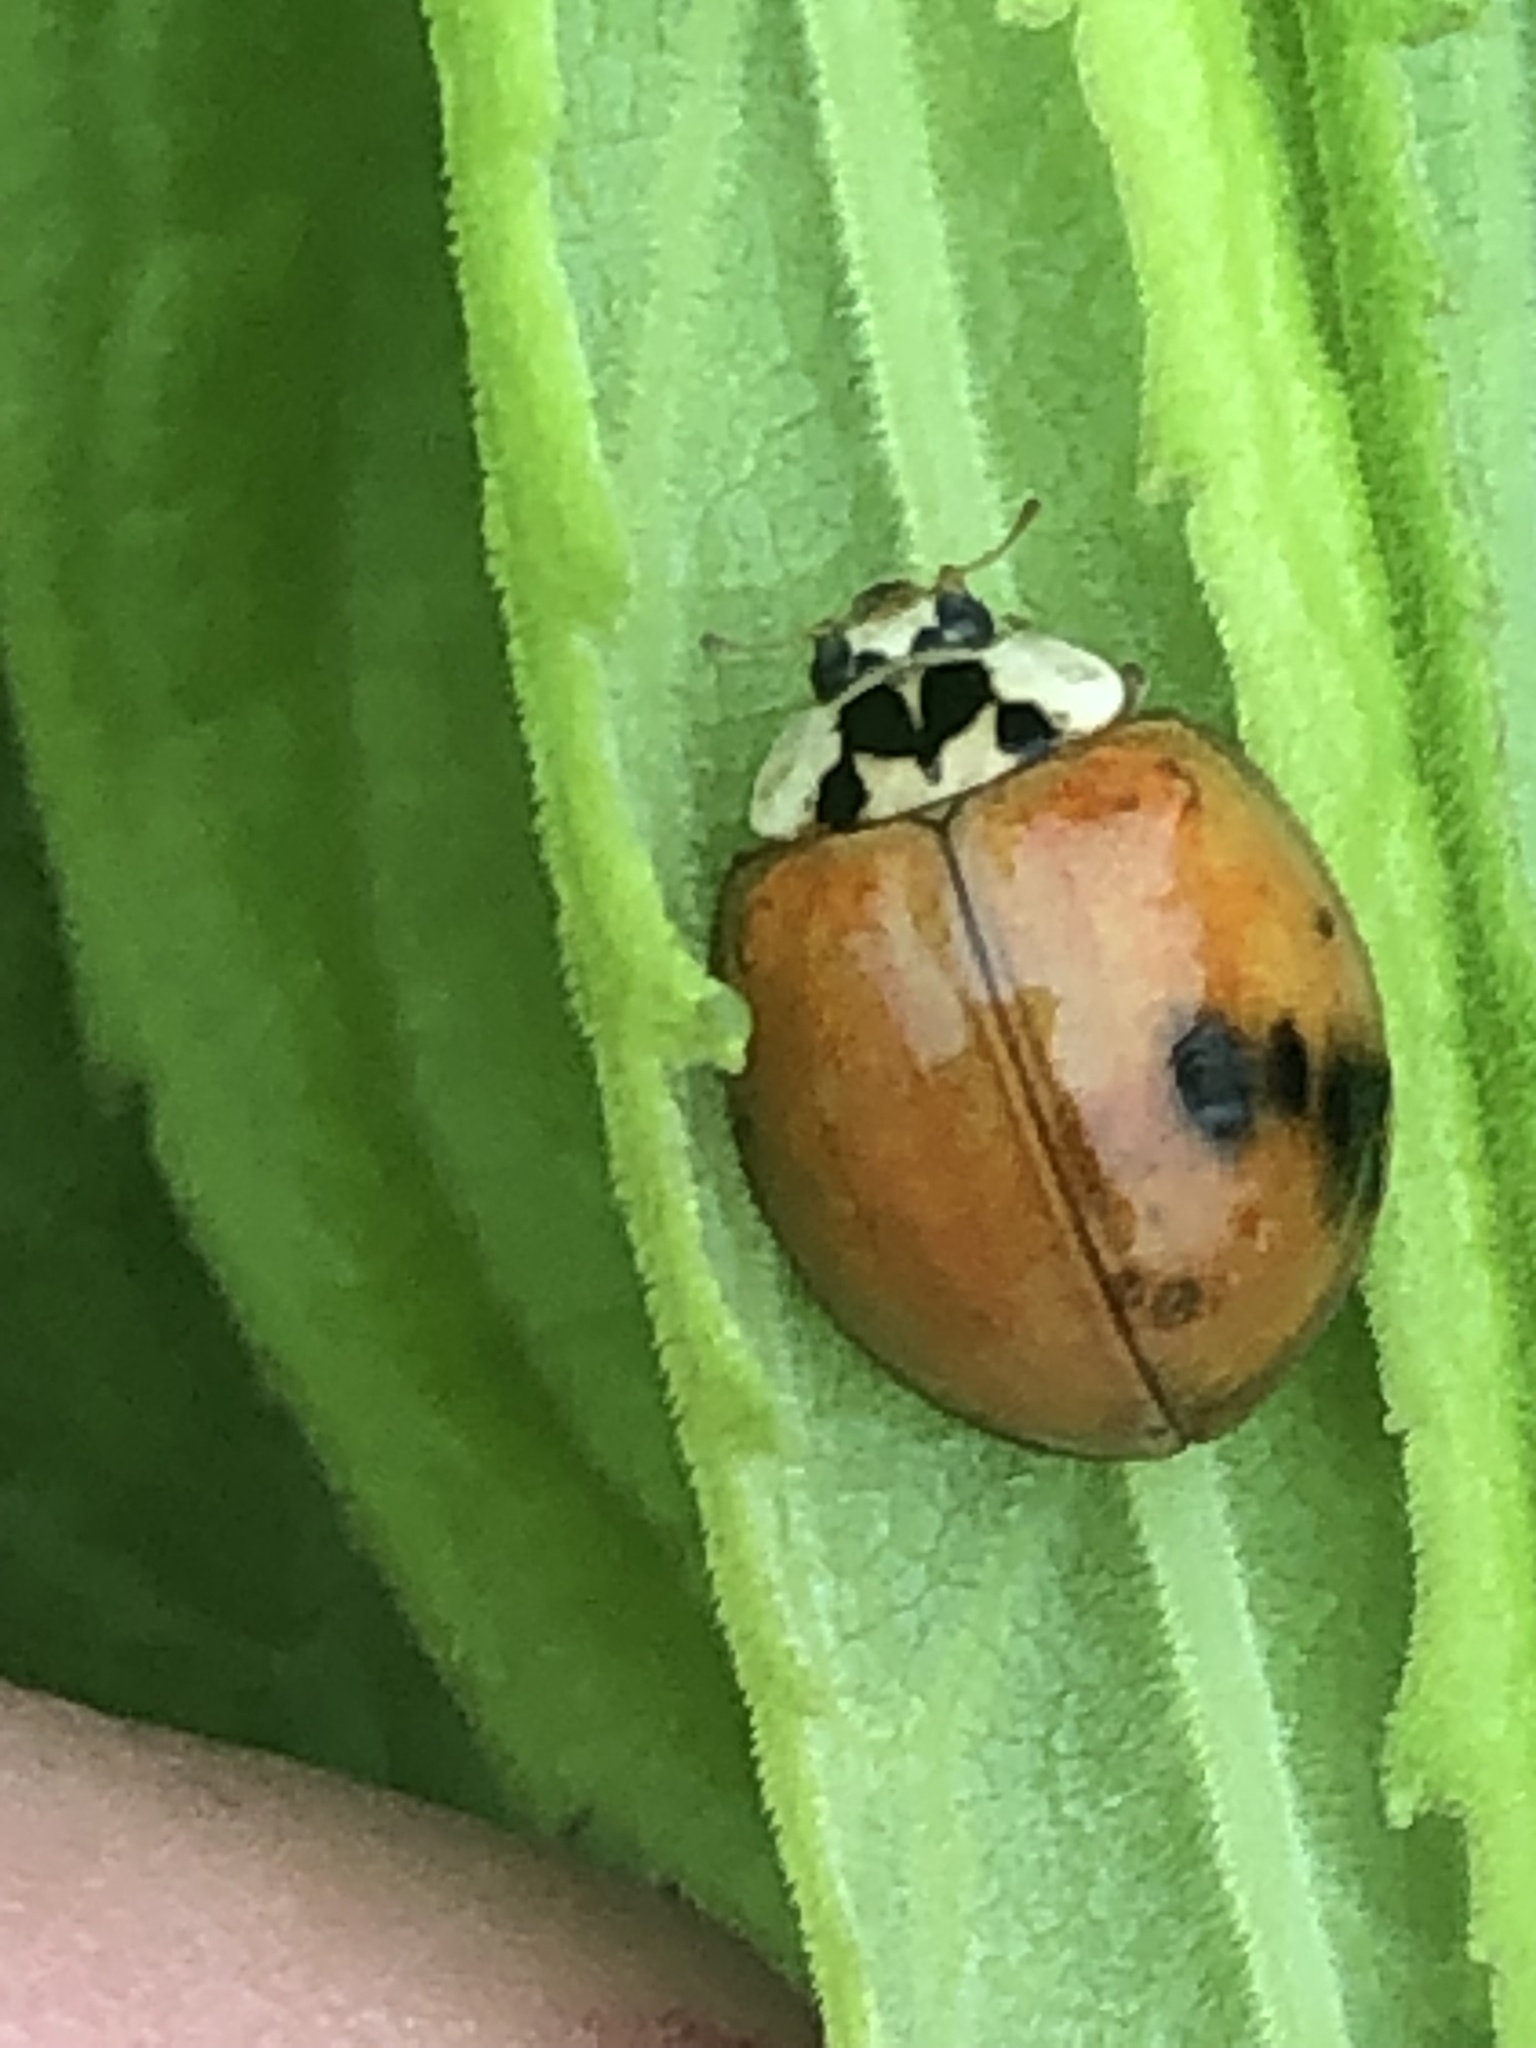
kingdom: Animalia
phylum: Arthropoda
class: Insecta
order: Coleoptera
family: Coccinellidae
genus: Harmonia
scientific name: Harmonia axyridis
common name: Harlequin ladybird
